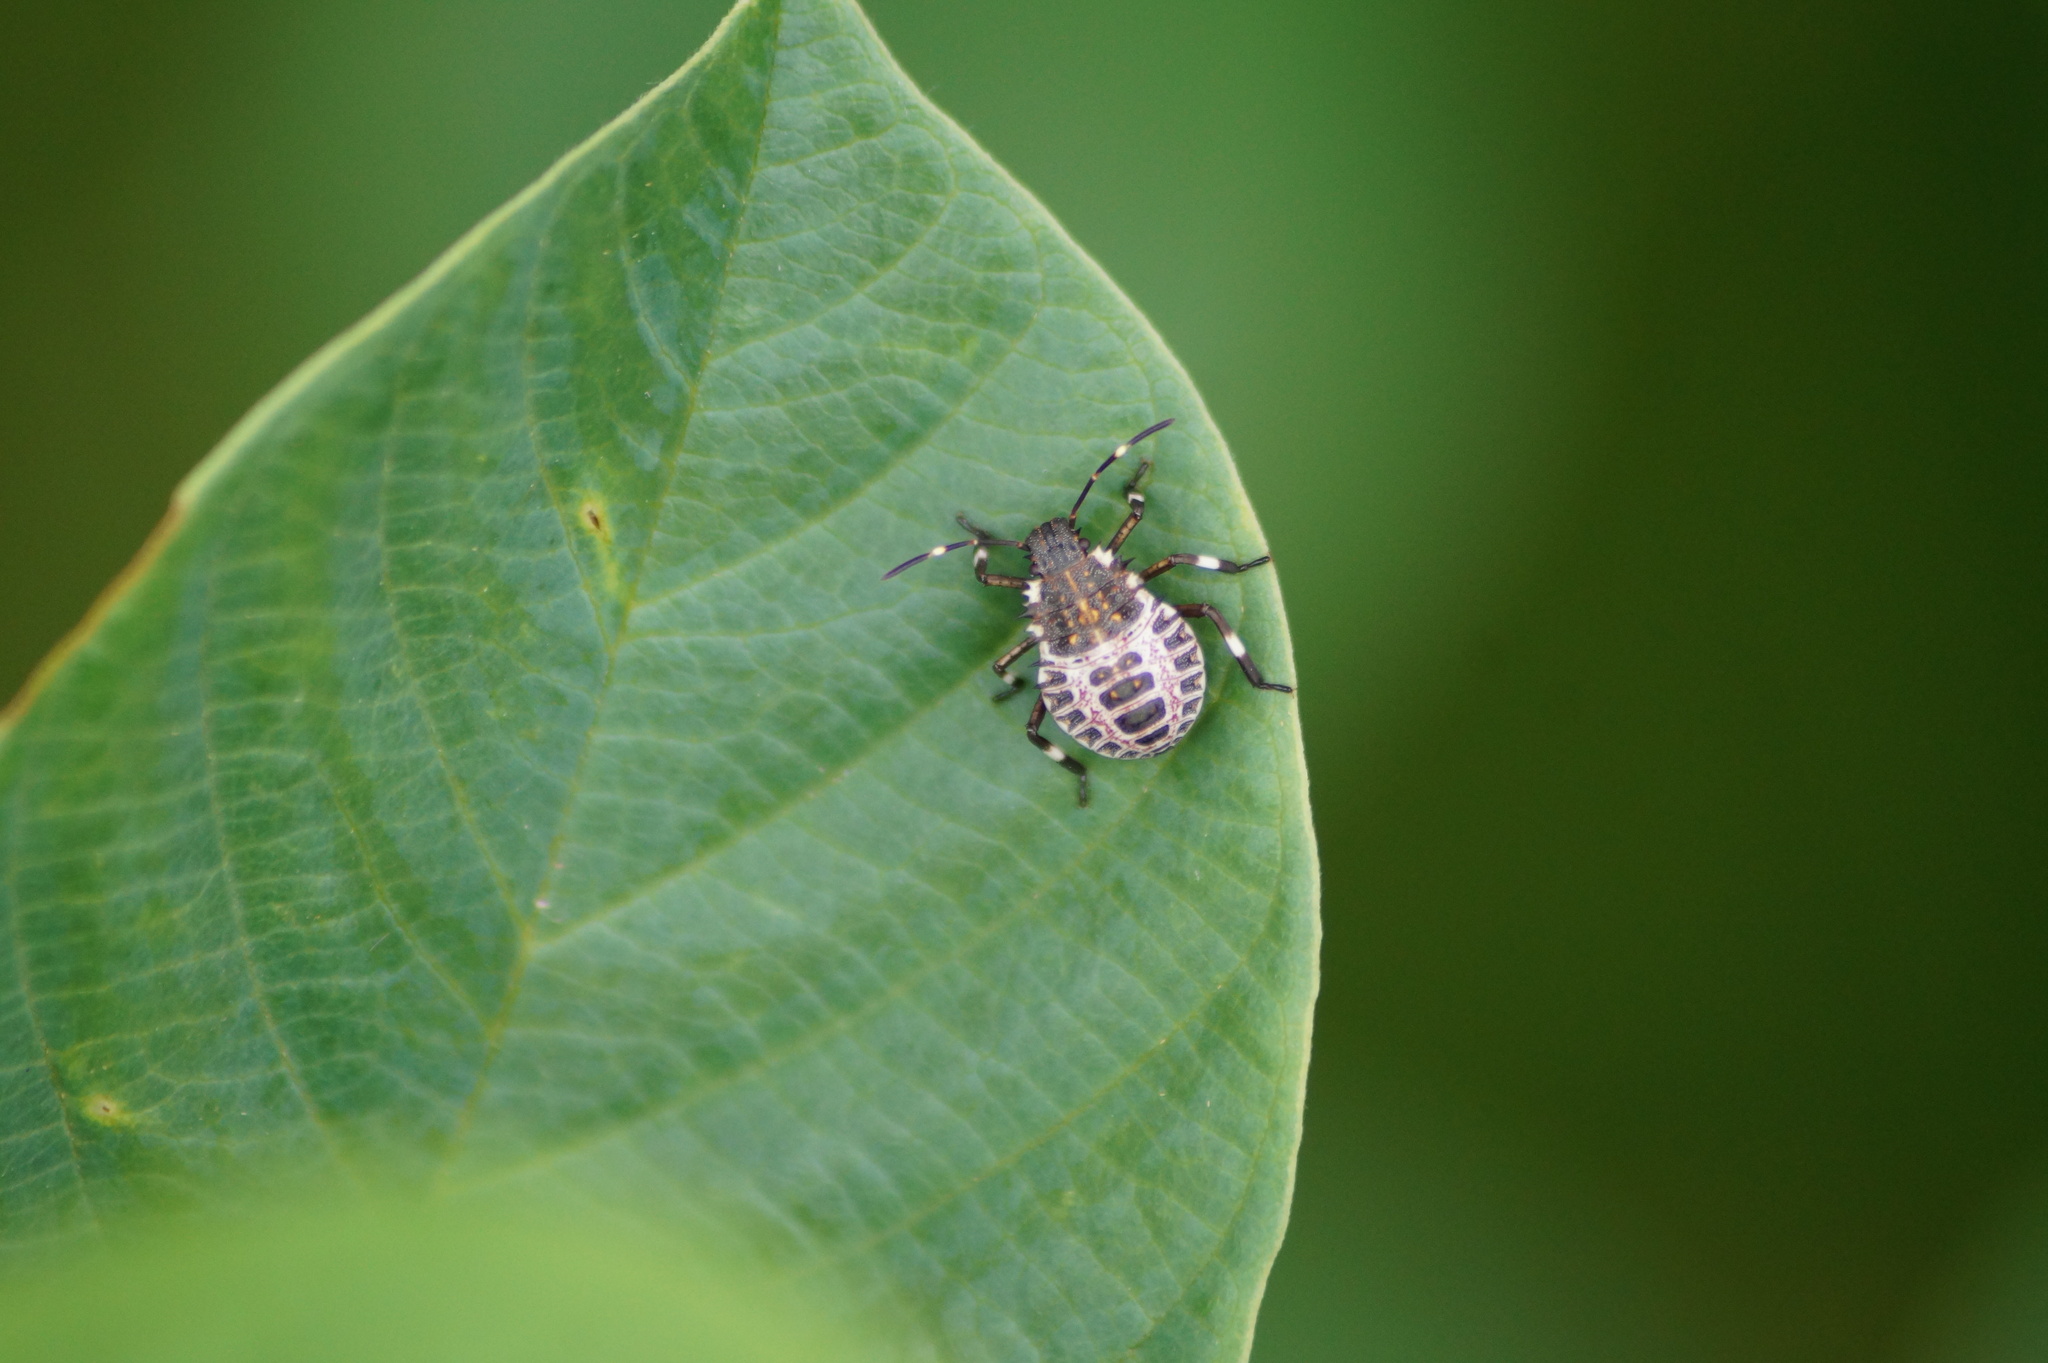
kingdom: Animalia
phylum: Arthropoda
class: Insecta
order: Hemiptera
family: Pentatomidae
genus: Halyomorpha
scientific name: Halyomorpha halys
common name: Brown marmorated stink bug
